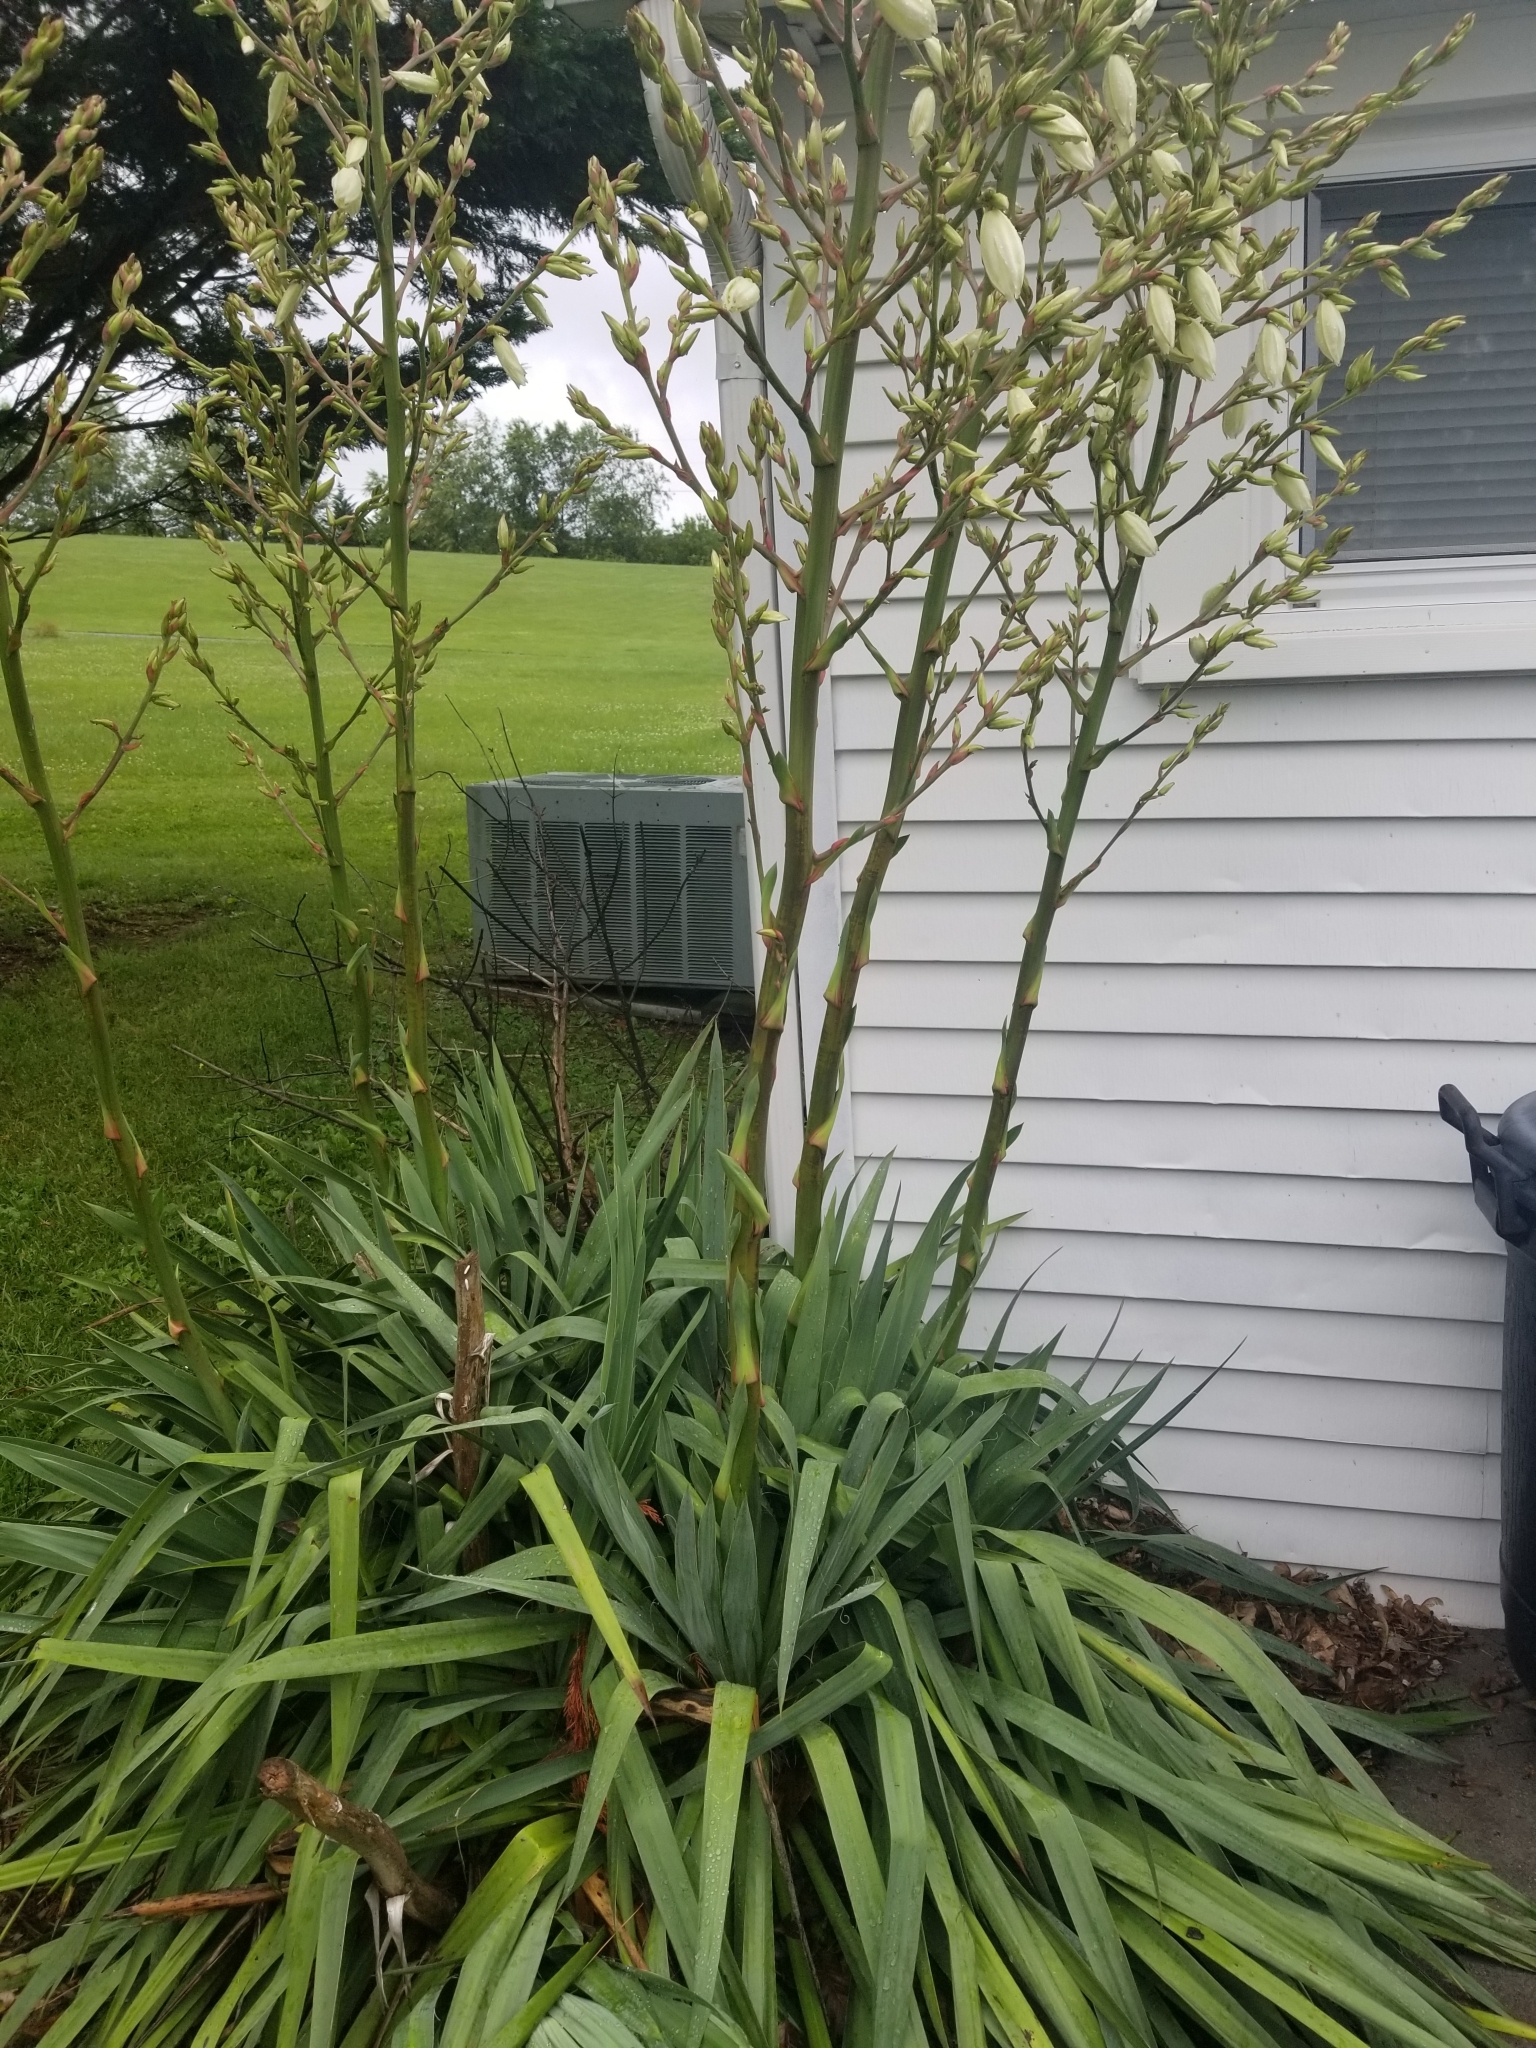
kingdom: Plantae
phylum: Tracheophyta
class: Liliopsida
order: Asparagales
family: Asparagaceae
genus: Yucca
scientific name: Yucca filamentosa
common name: Adam's-needle
